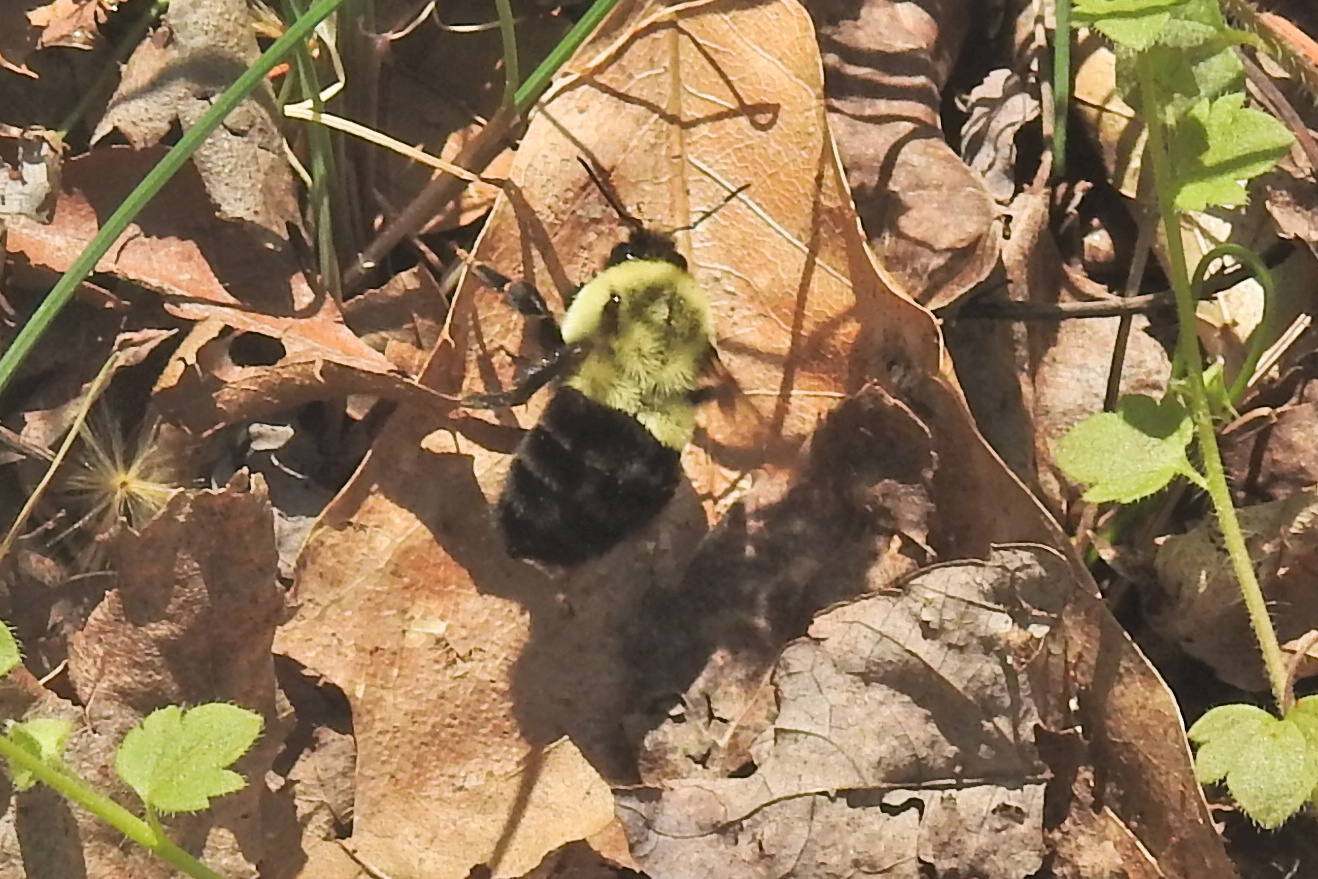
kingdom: Animalia
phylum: Arthropoda
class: Insecta
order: Hymenoptera
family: Apidae
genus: Bombus
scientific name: Bombus impatiens
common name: Common eastern bumble bee
